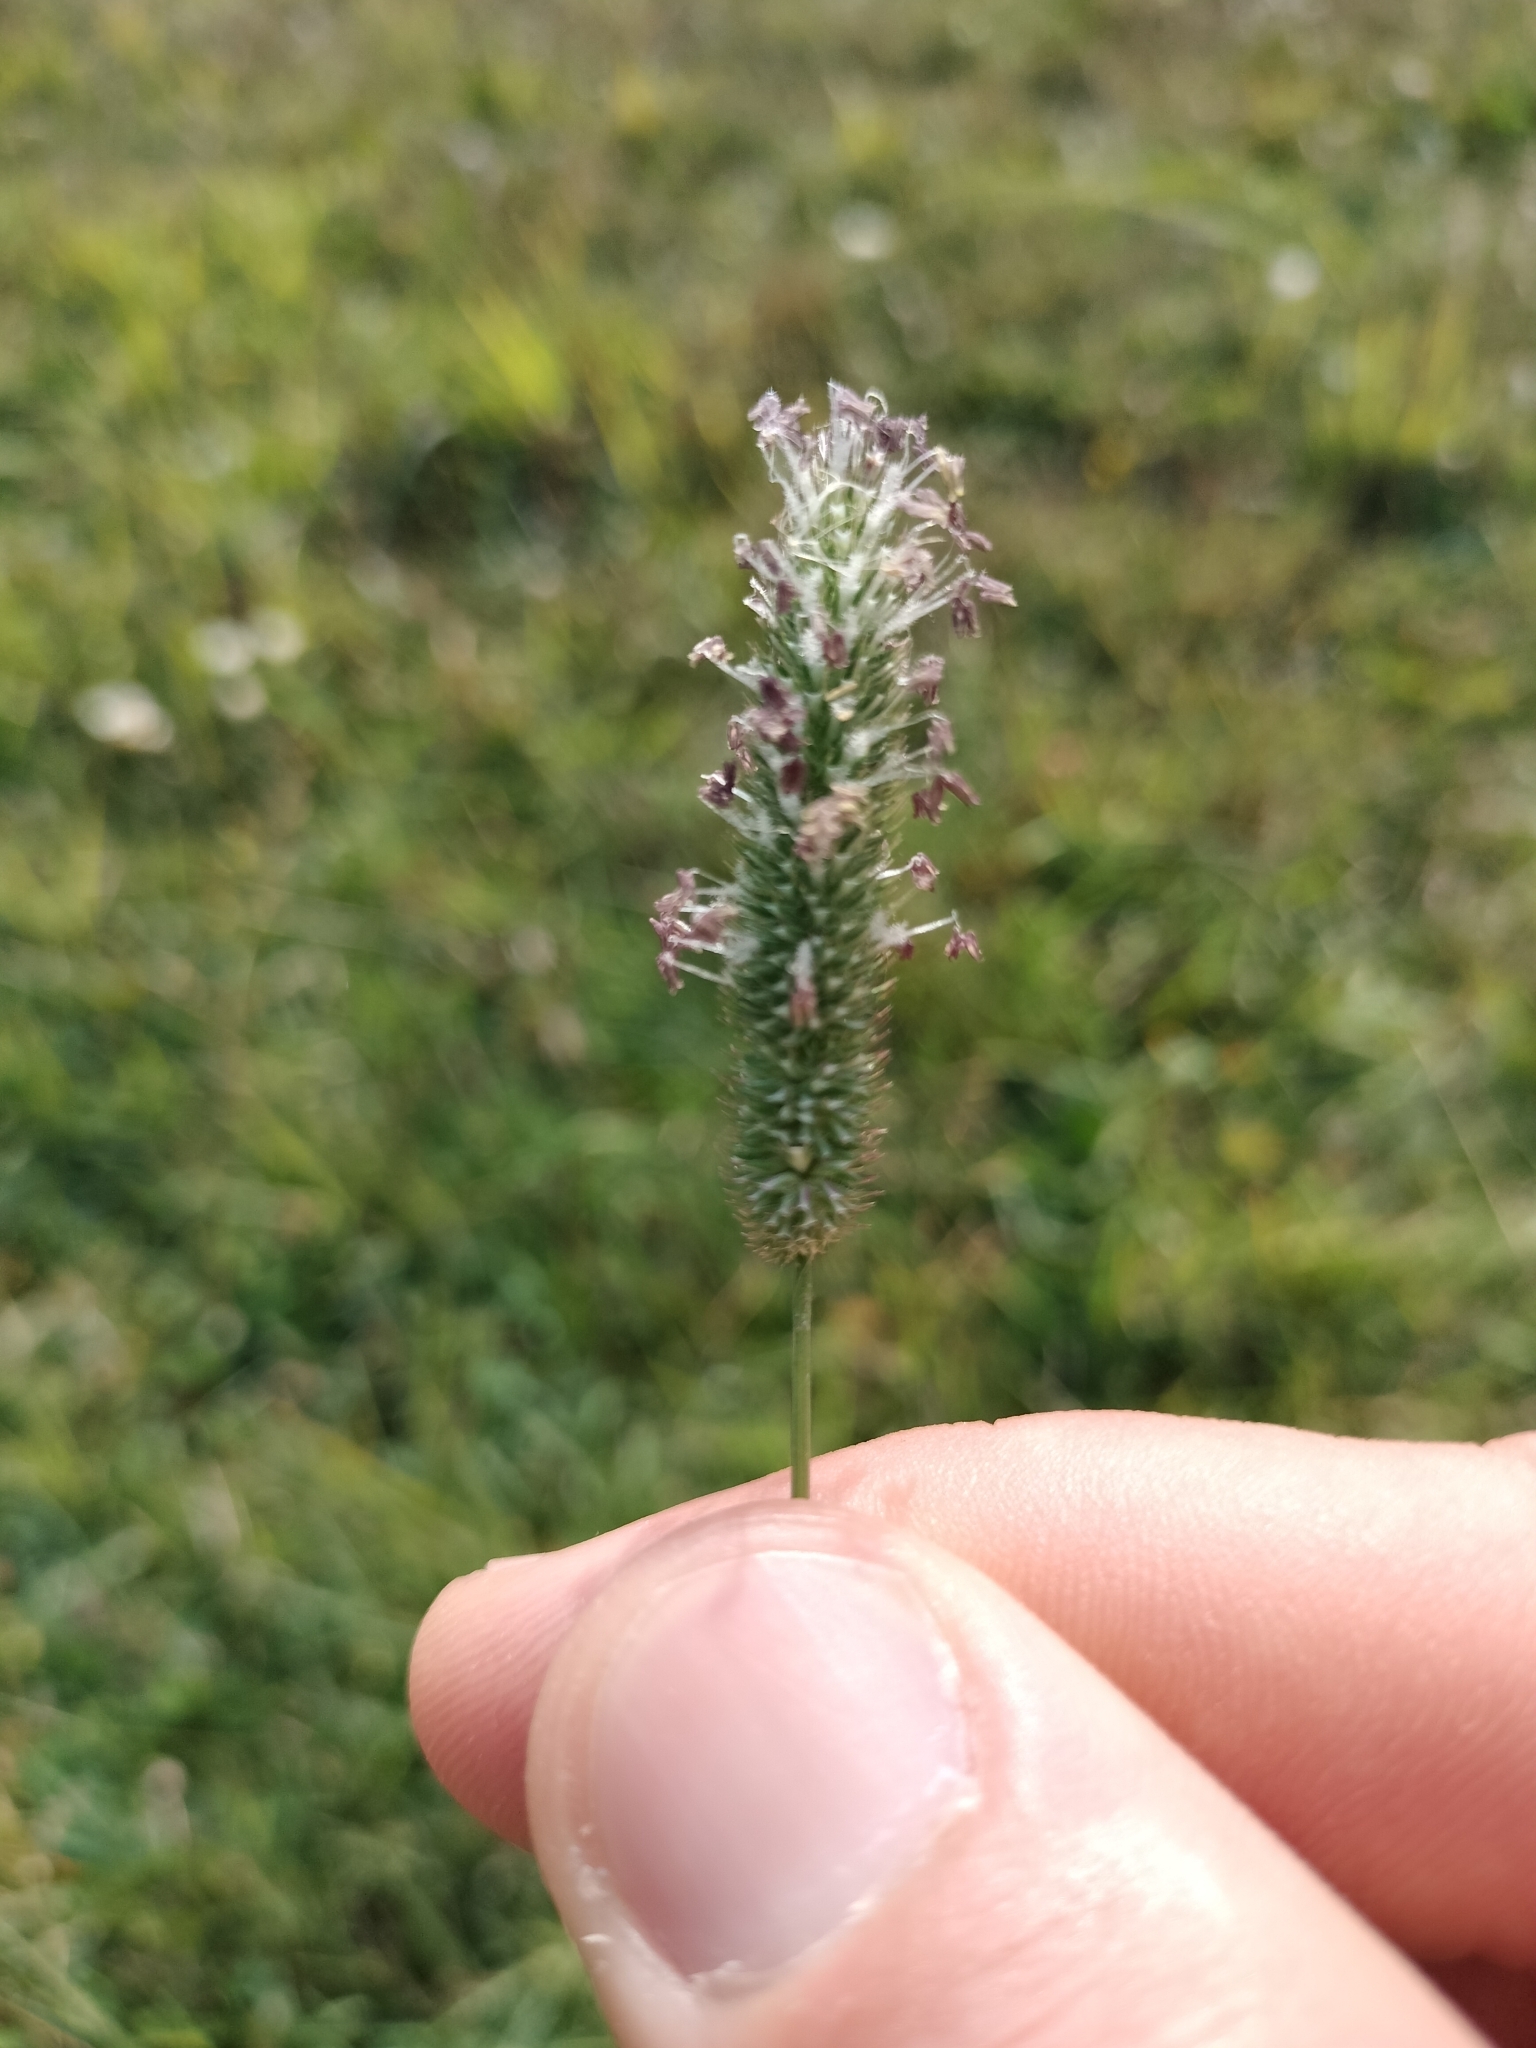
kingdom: Plantae
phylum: Tracheophyta
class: Liliopsida
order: Poales
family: Poaceae
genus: Phleum
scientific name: Phleum pratense
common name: Timothy grass
